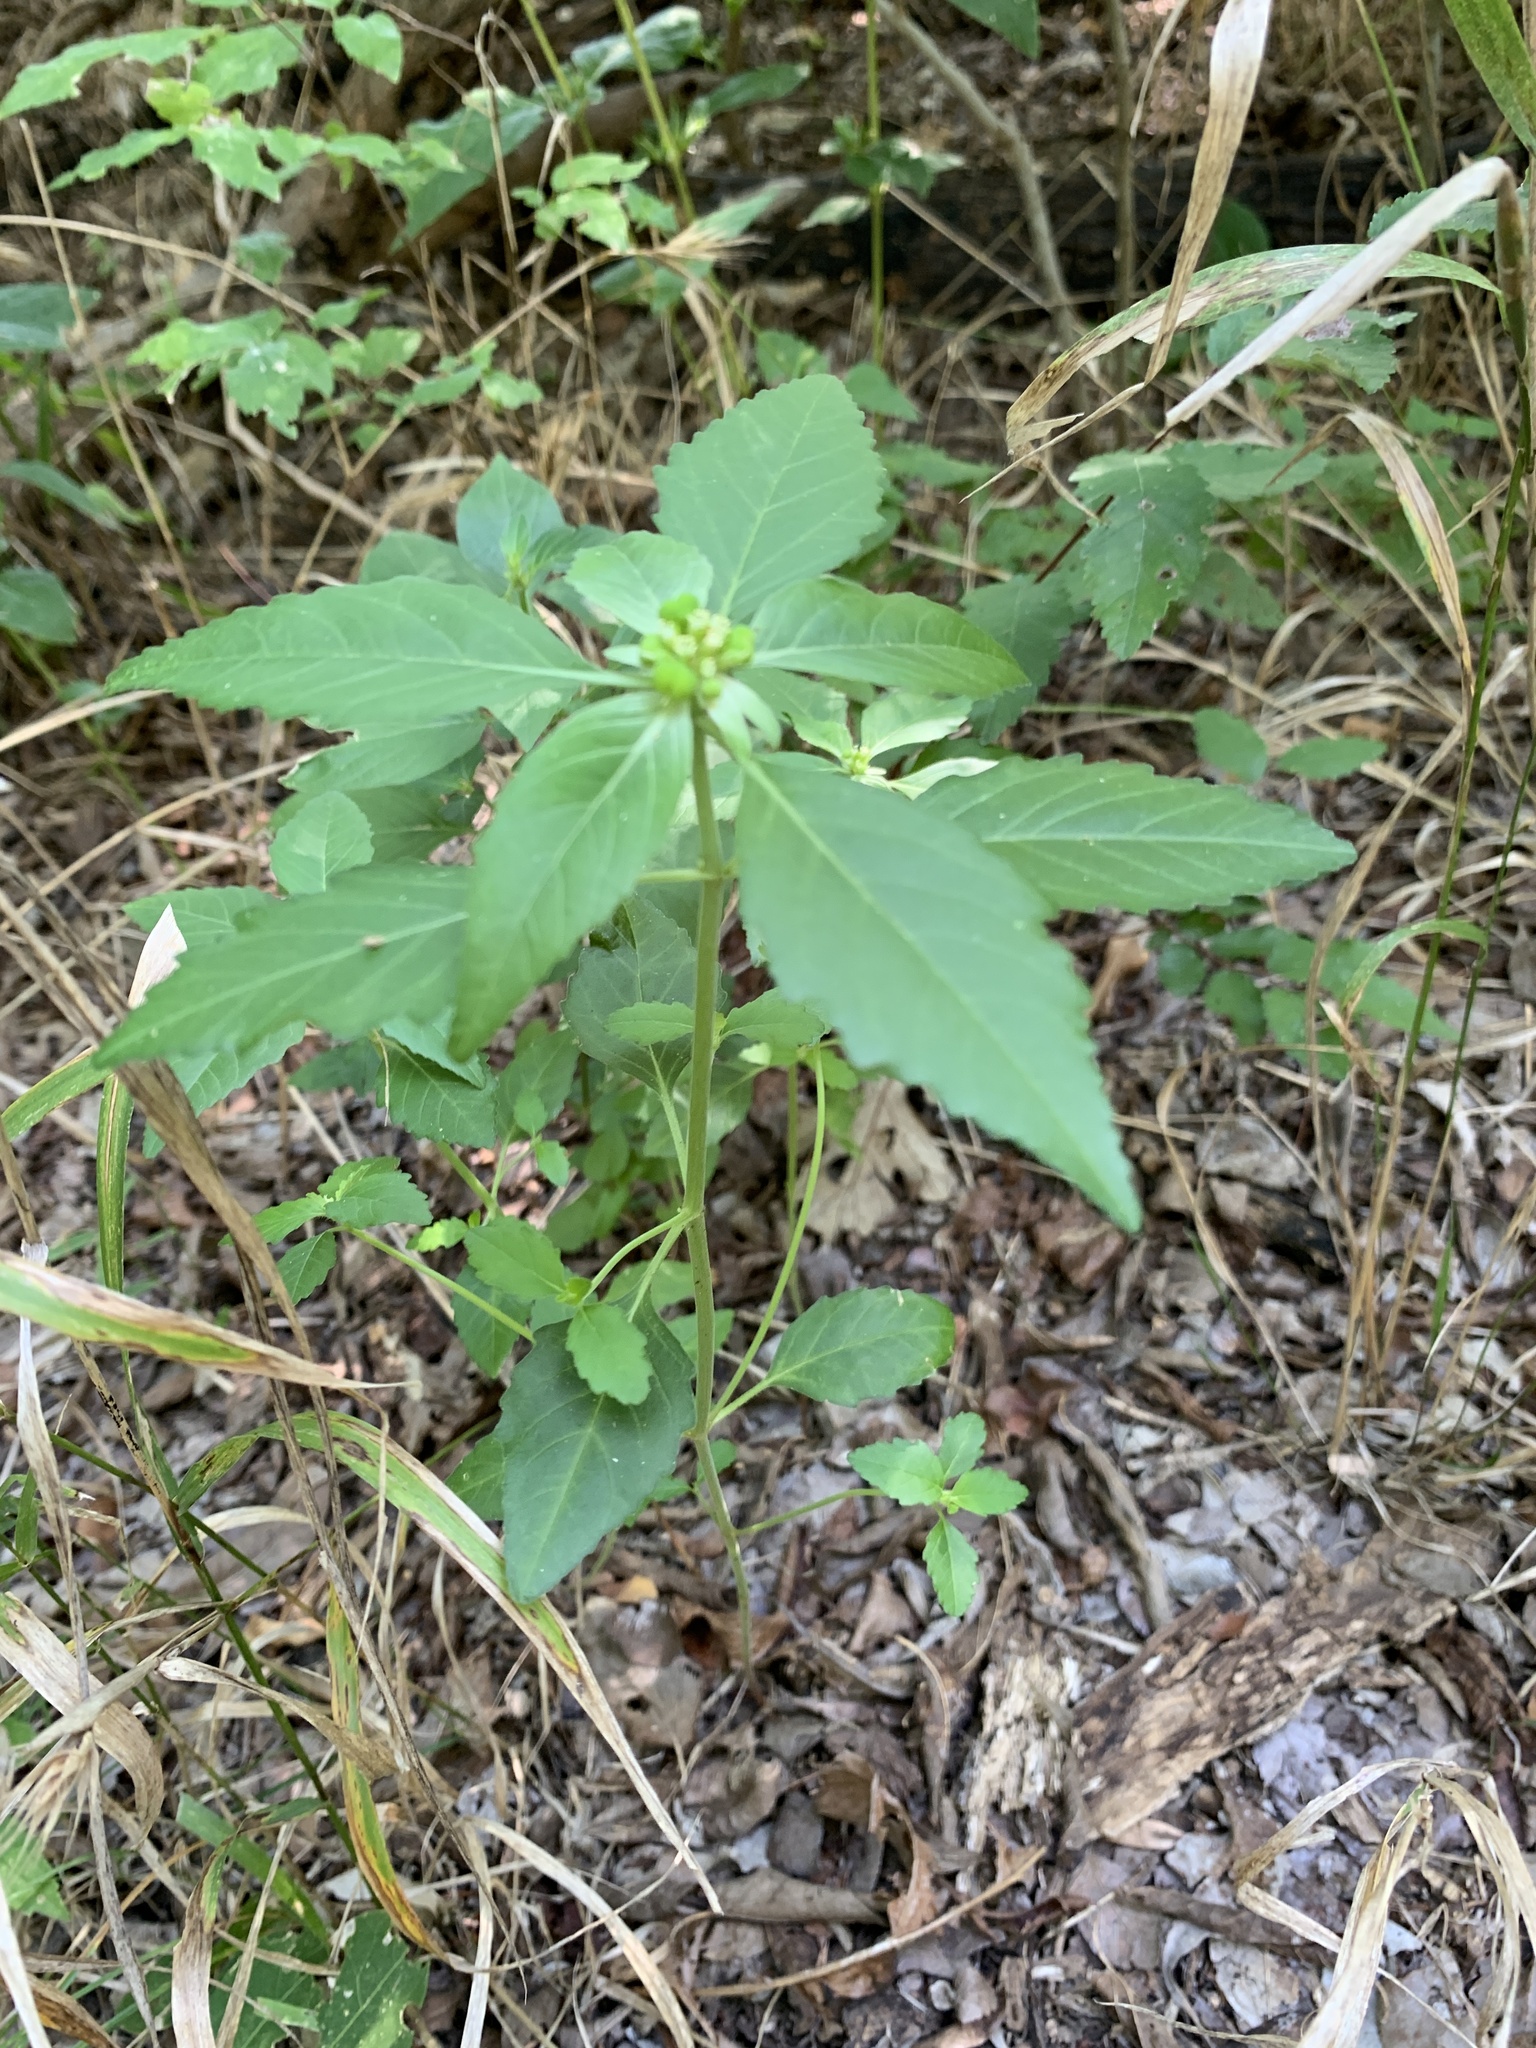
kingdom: Plantae
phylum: Tracheophyta
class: Magnoliopsida
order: Malpighiales
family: Euphorbiaceae
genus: Euphorbia
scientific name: Euphorbia dentata
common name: Dentate spurge
